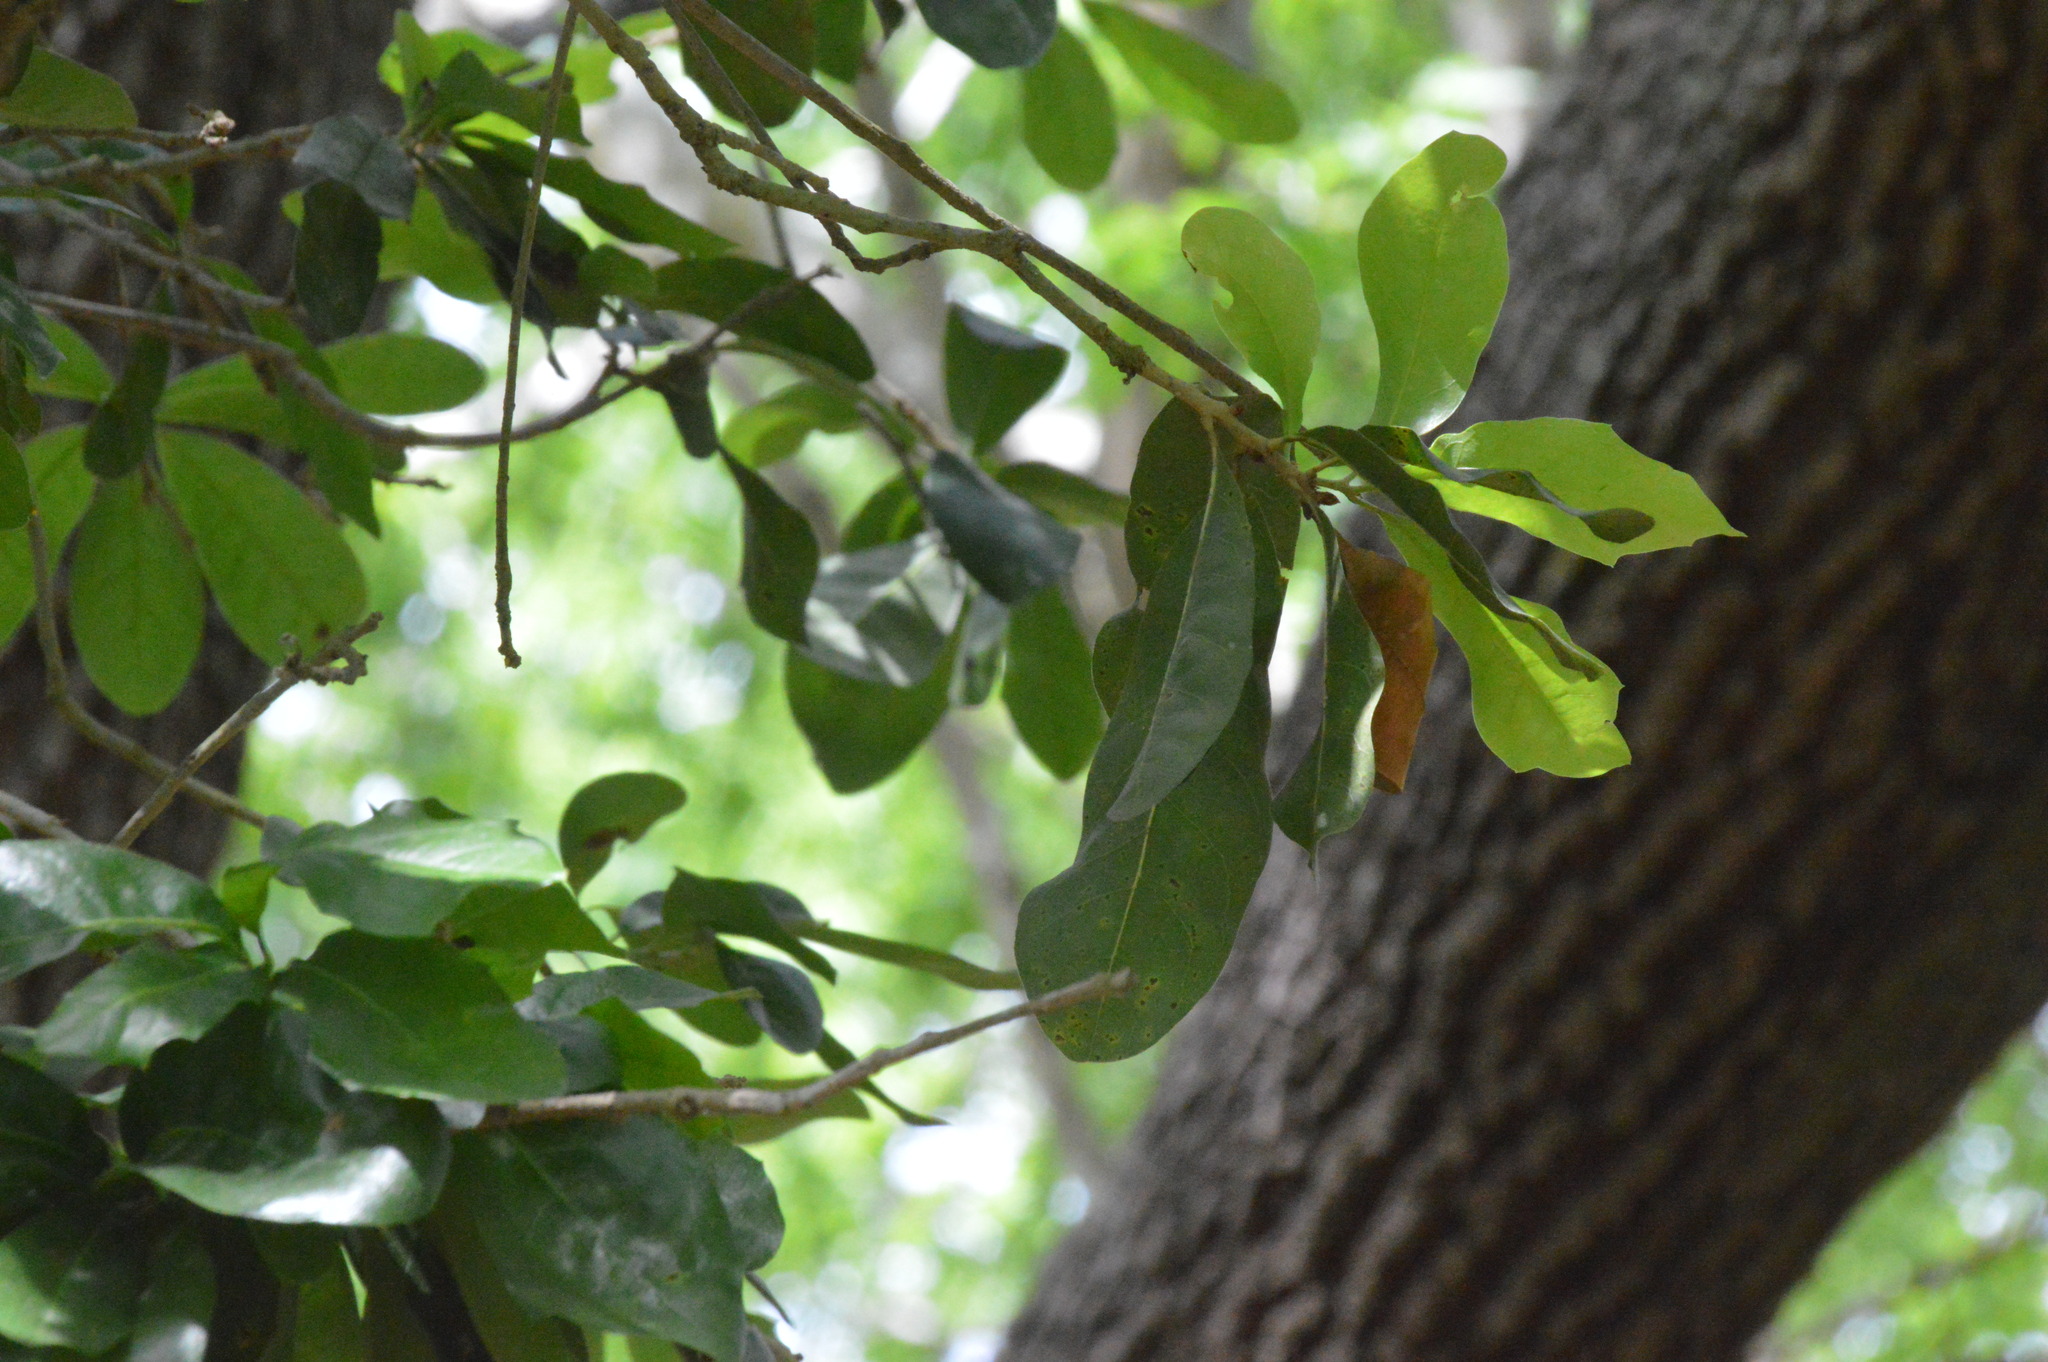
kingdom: Plantae
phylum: Tracheophyta
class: Magnoliopsida
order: Fagales
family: Fagaceae
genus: Quercus
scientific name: Quercus virginiana
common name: Southern live oak
